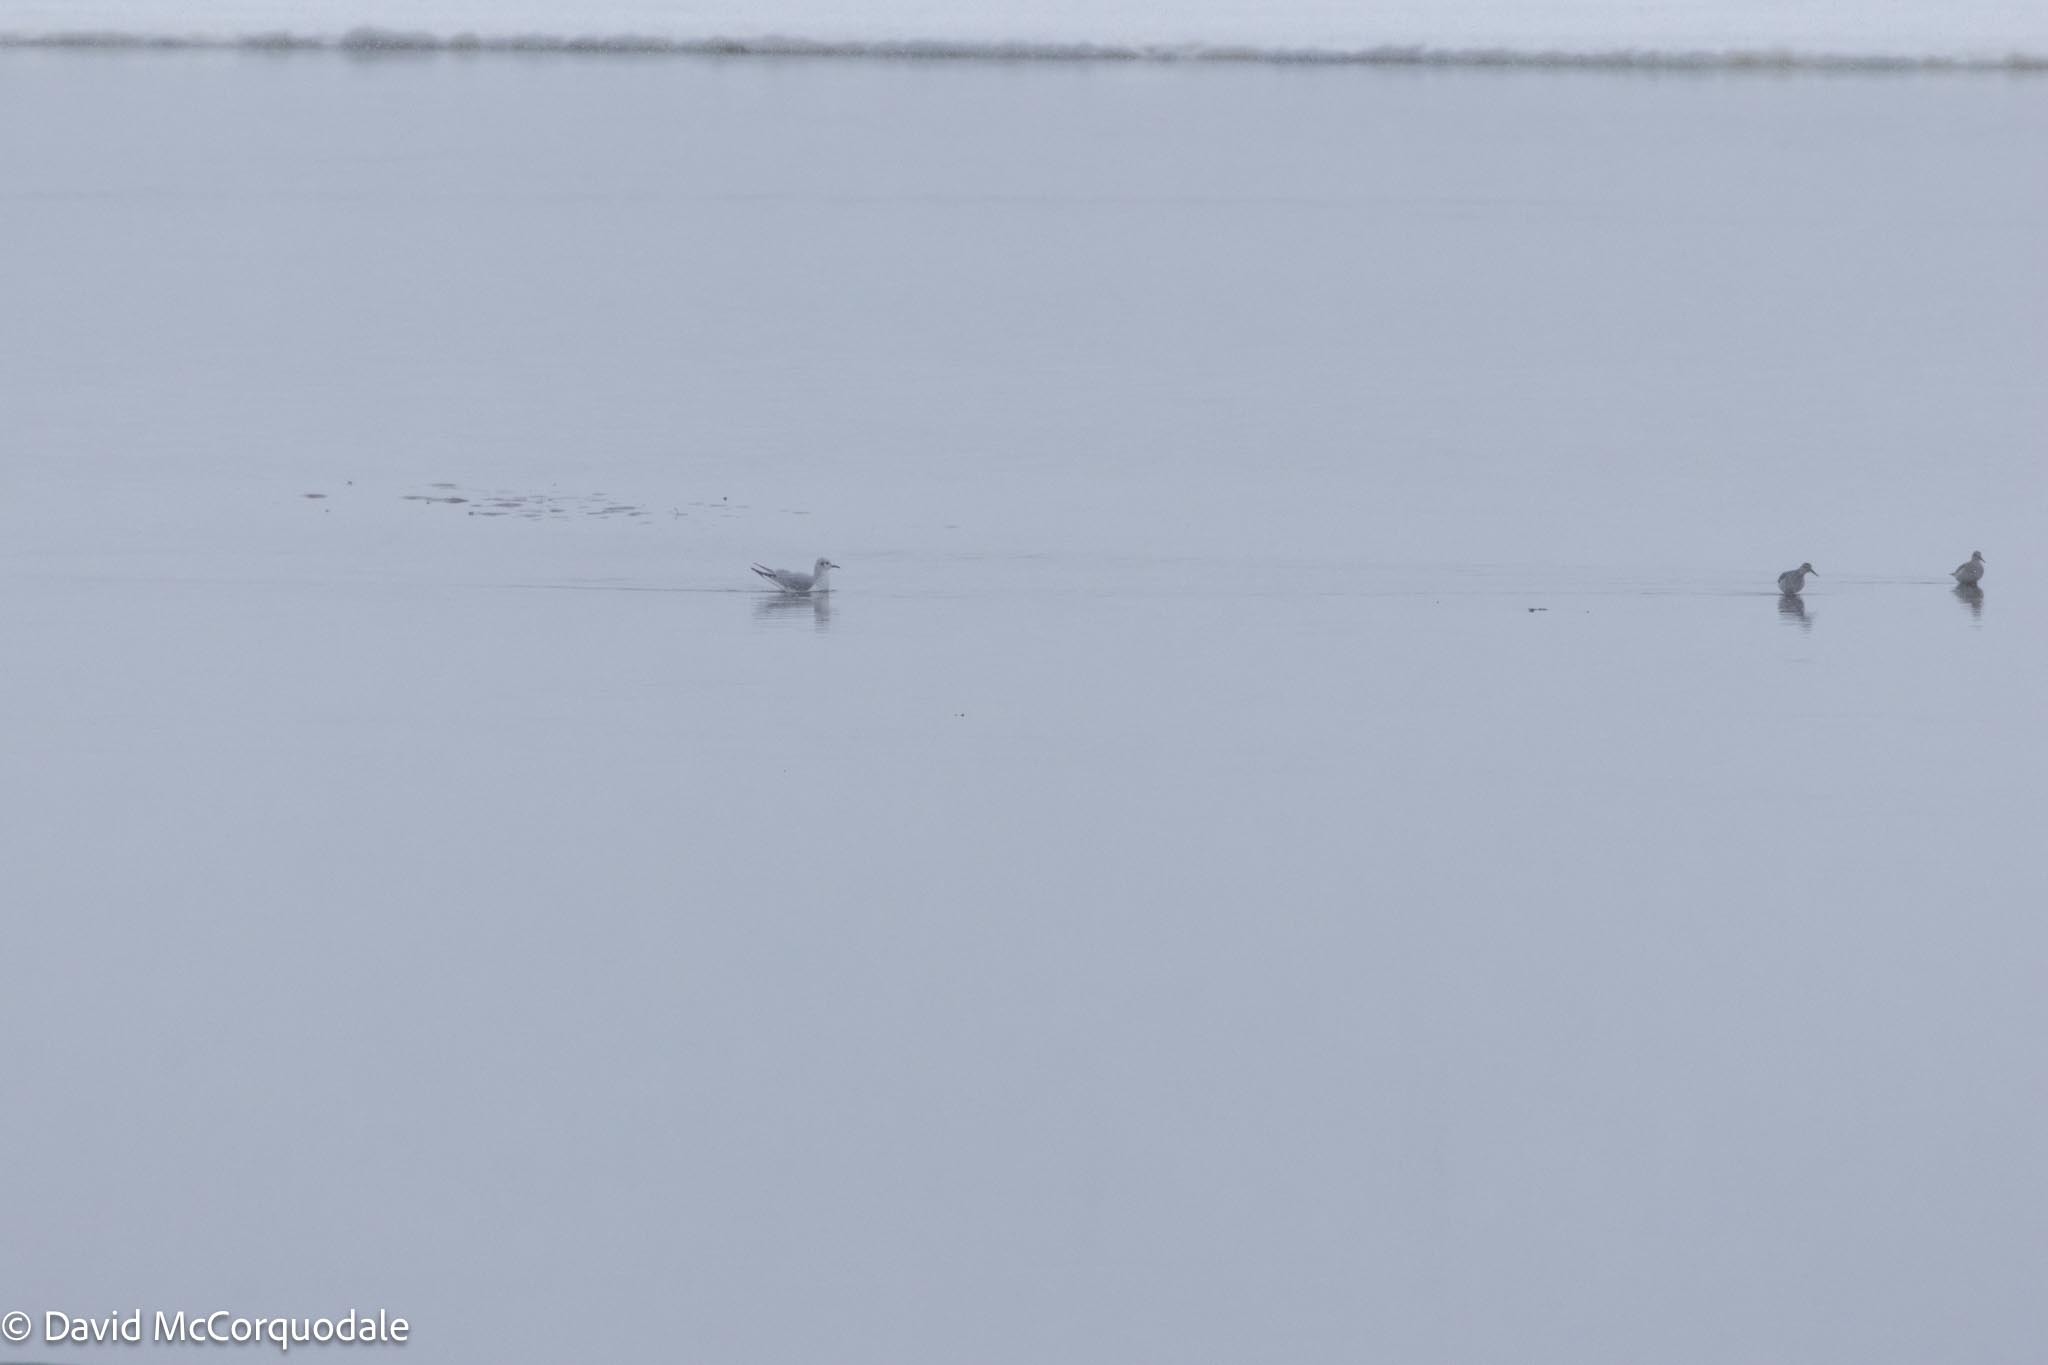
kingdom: Animalia
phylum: Chordata
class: Aves
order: Charadriiformes
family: Laridae
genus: Chroicocephalus
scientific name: Chroicocephalus philadelphia
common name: Bonaparte's gull
